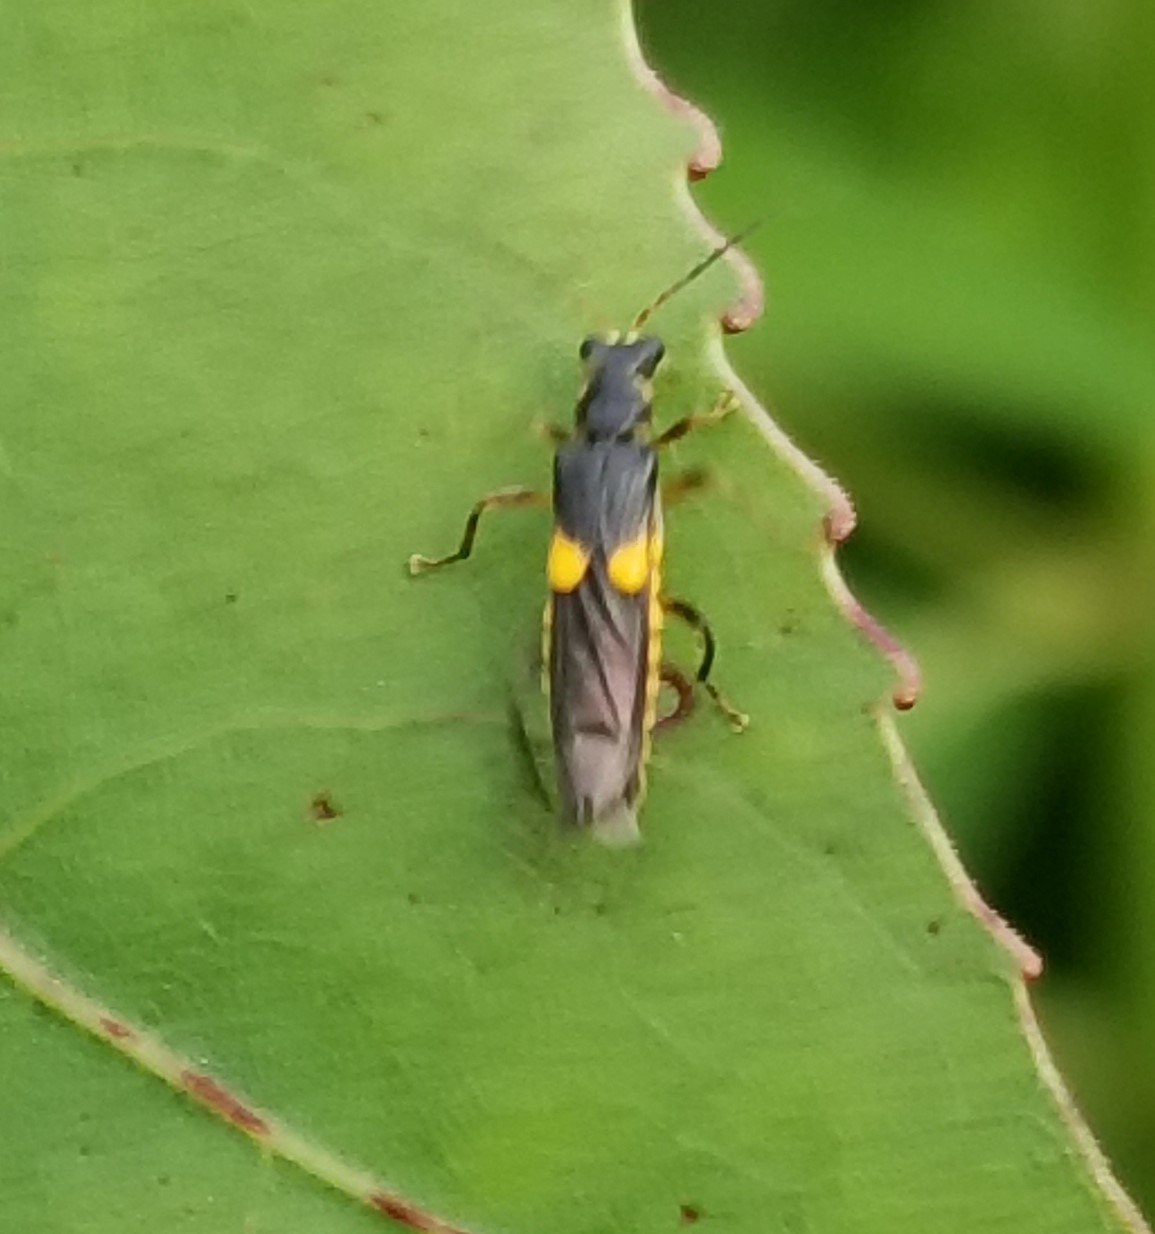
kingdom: Animalia
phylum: Arthropoda
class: Insecta
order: Coleoptera
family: Cantharidae
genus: Trypherus
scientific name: Trypherus
